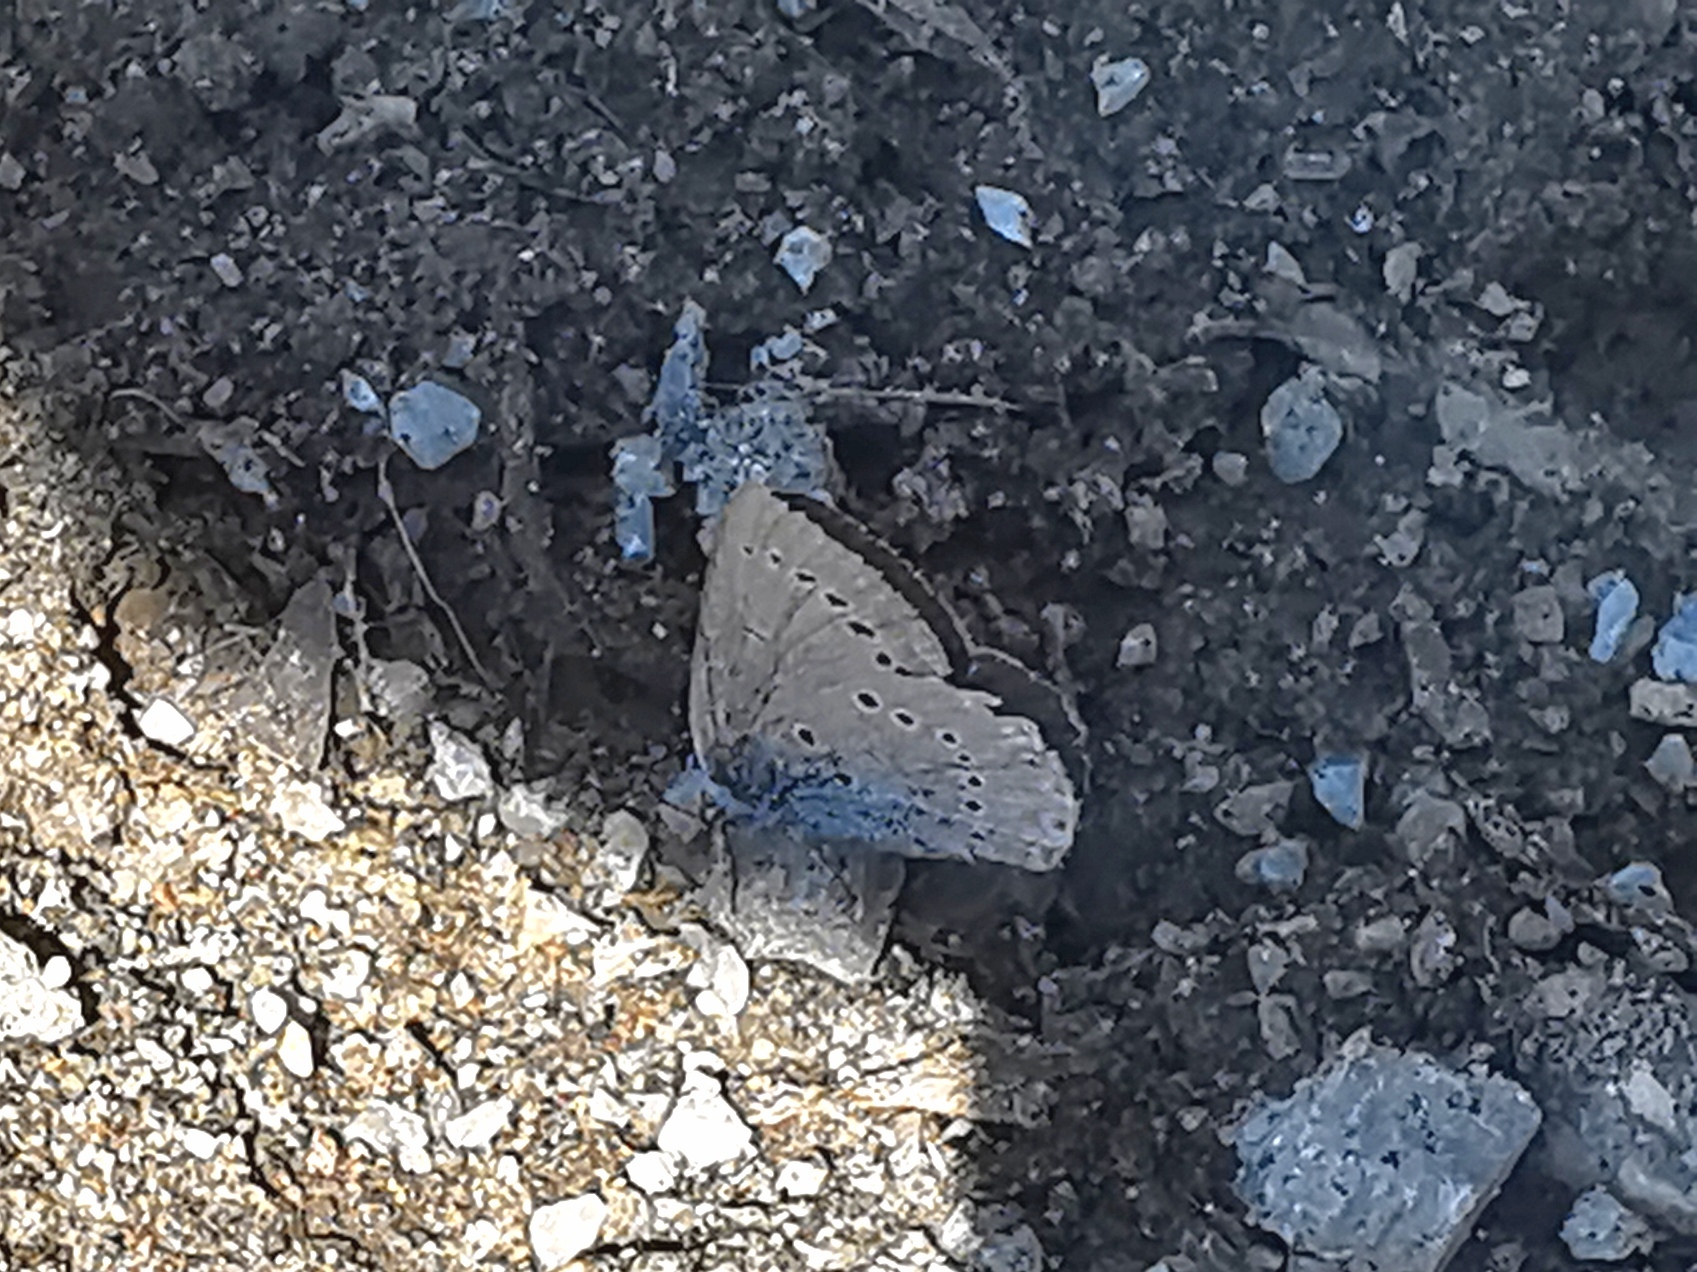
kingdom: Animalia
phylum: Arthropoda
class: Insecta
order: Lepidoptera
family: Lycaenidae
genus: Iolana
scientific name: Iolana iolas
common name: Iolas blue
